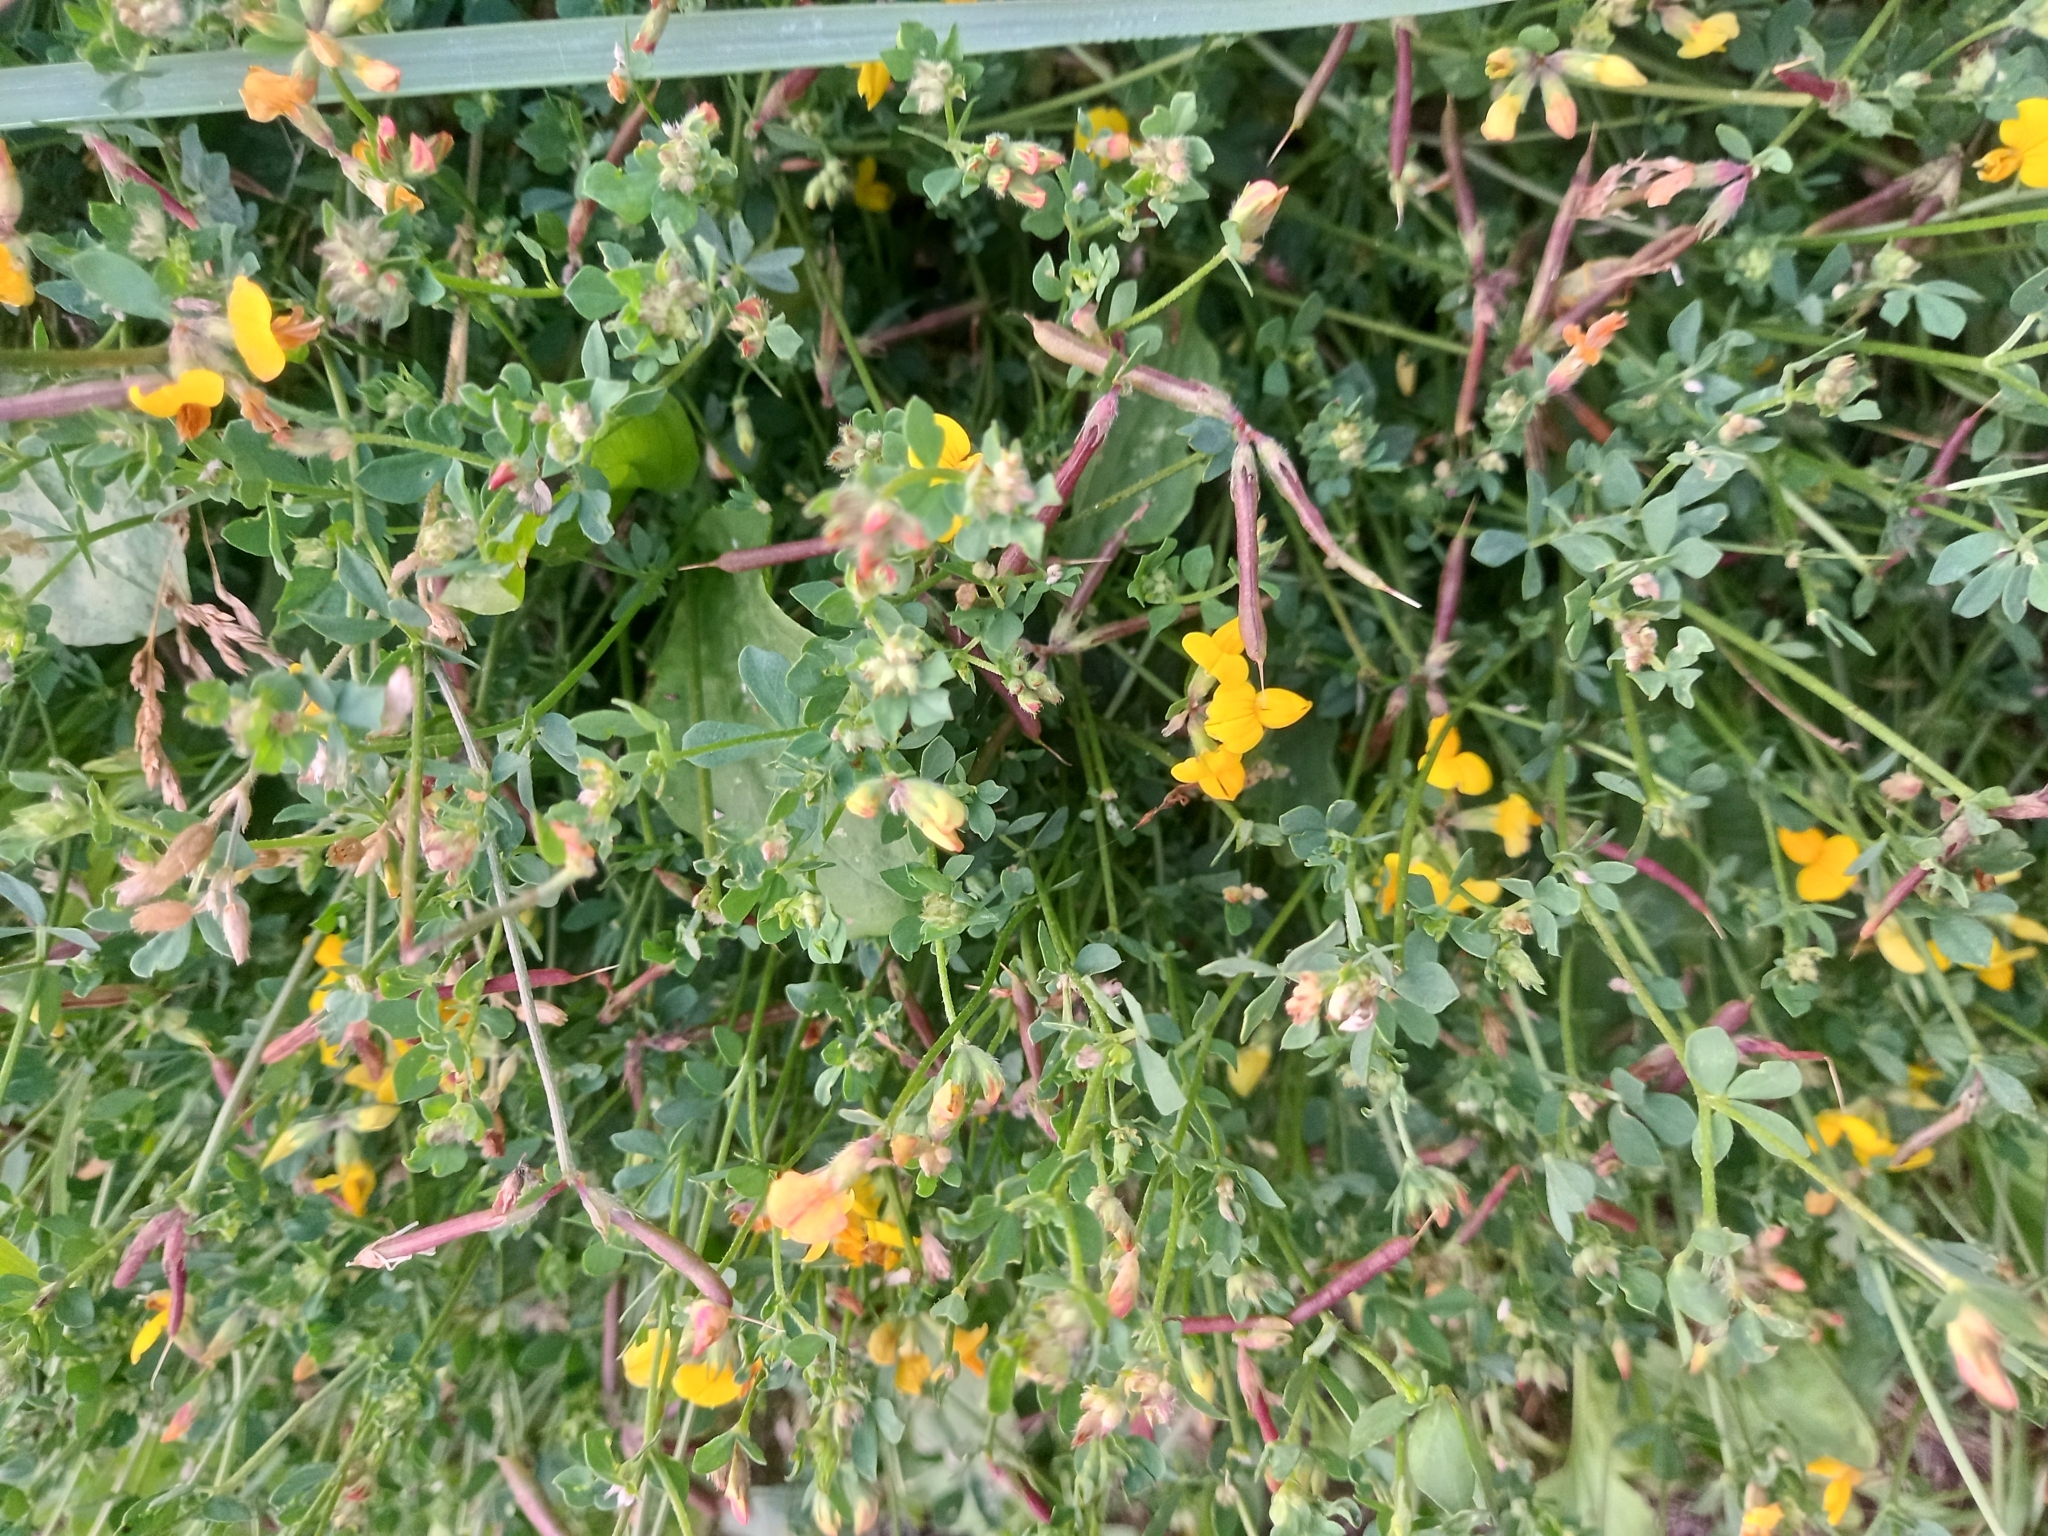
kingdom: Plantae
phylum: Tracheophyta
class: Magnoliopsida
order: Fabales
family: Fabaceae
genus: Lotus
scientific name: Lotus corniculatus
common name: Common bird's-foot-trefoil
